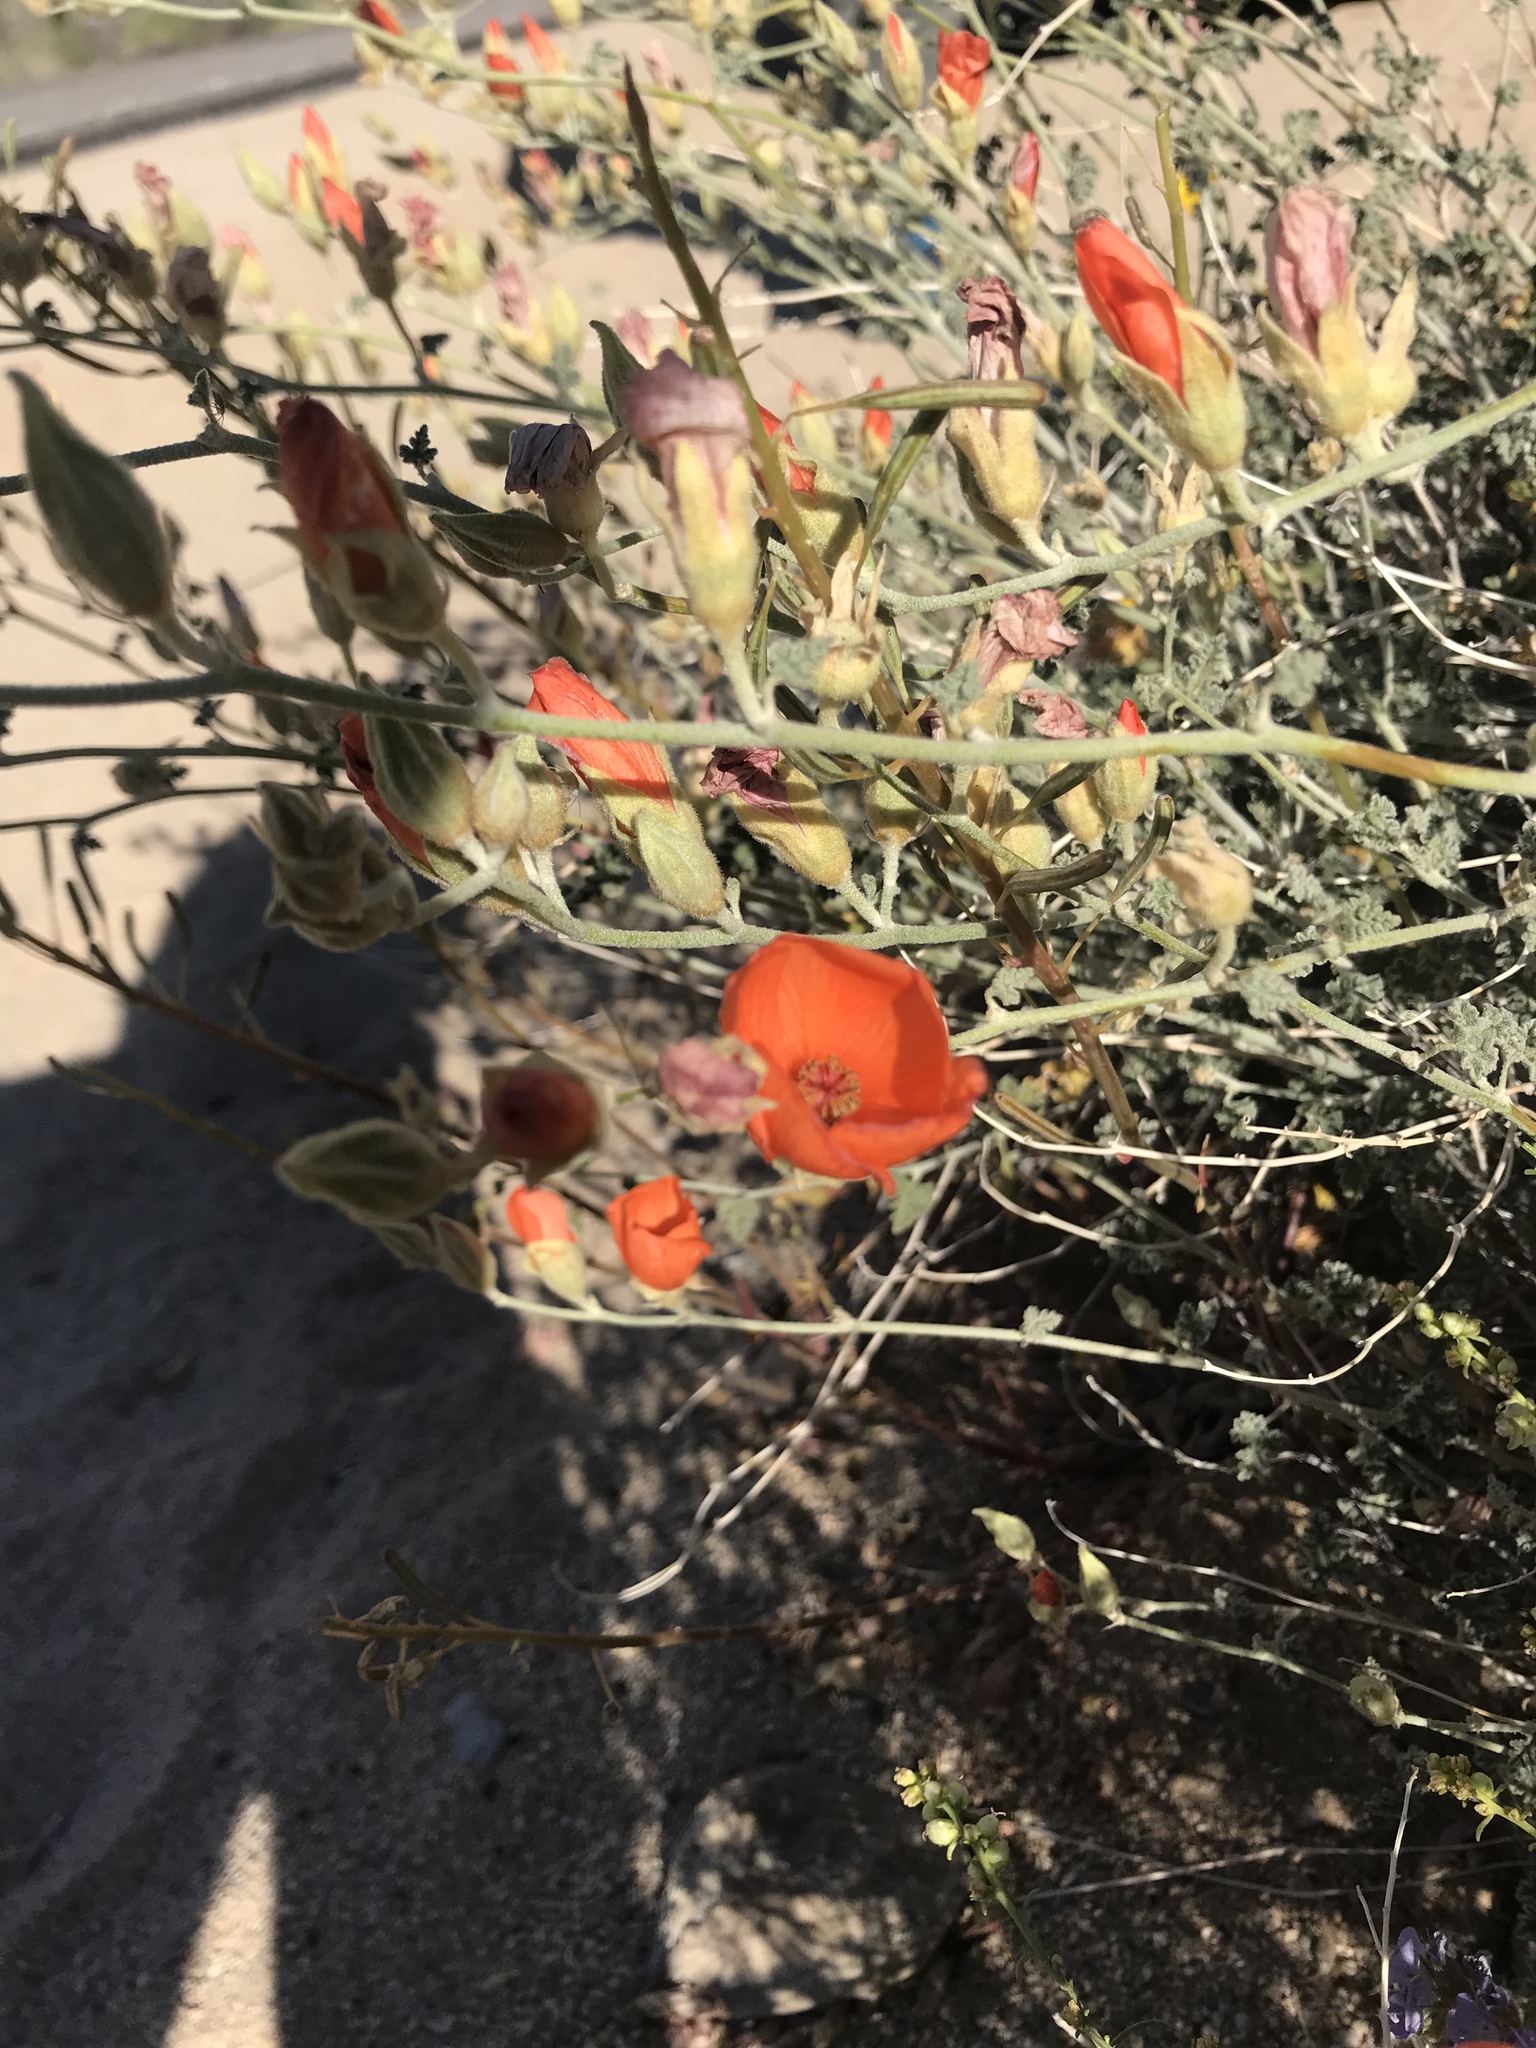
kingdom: Plantae
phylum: Tracheophyta
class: Magnoliopsida
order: Malvales
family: Malvaceae
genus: Sphaeralcea
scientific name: Sphaeralcea ambigua
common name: Apricot globe-mallow
